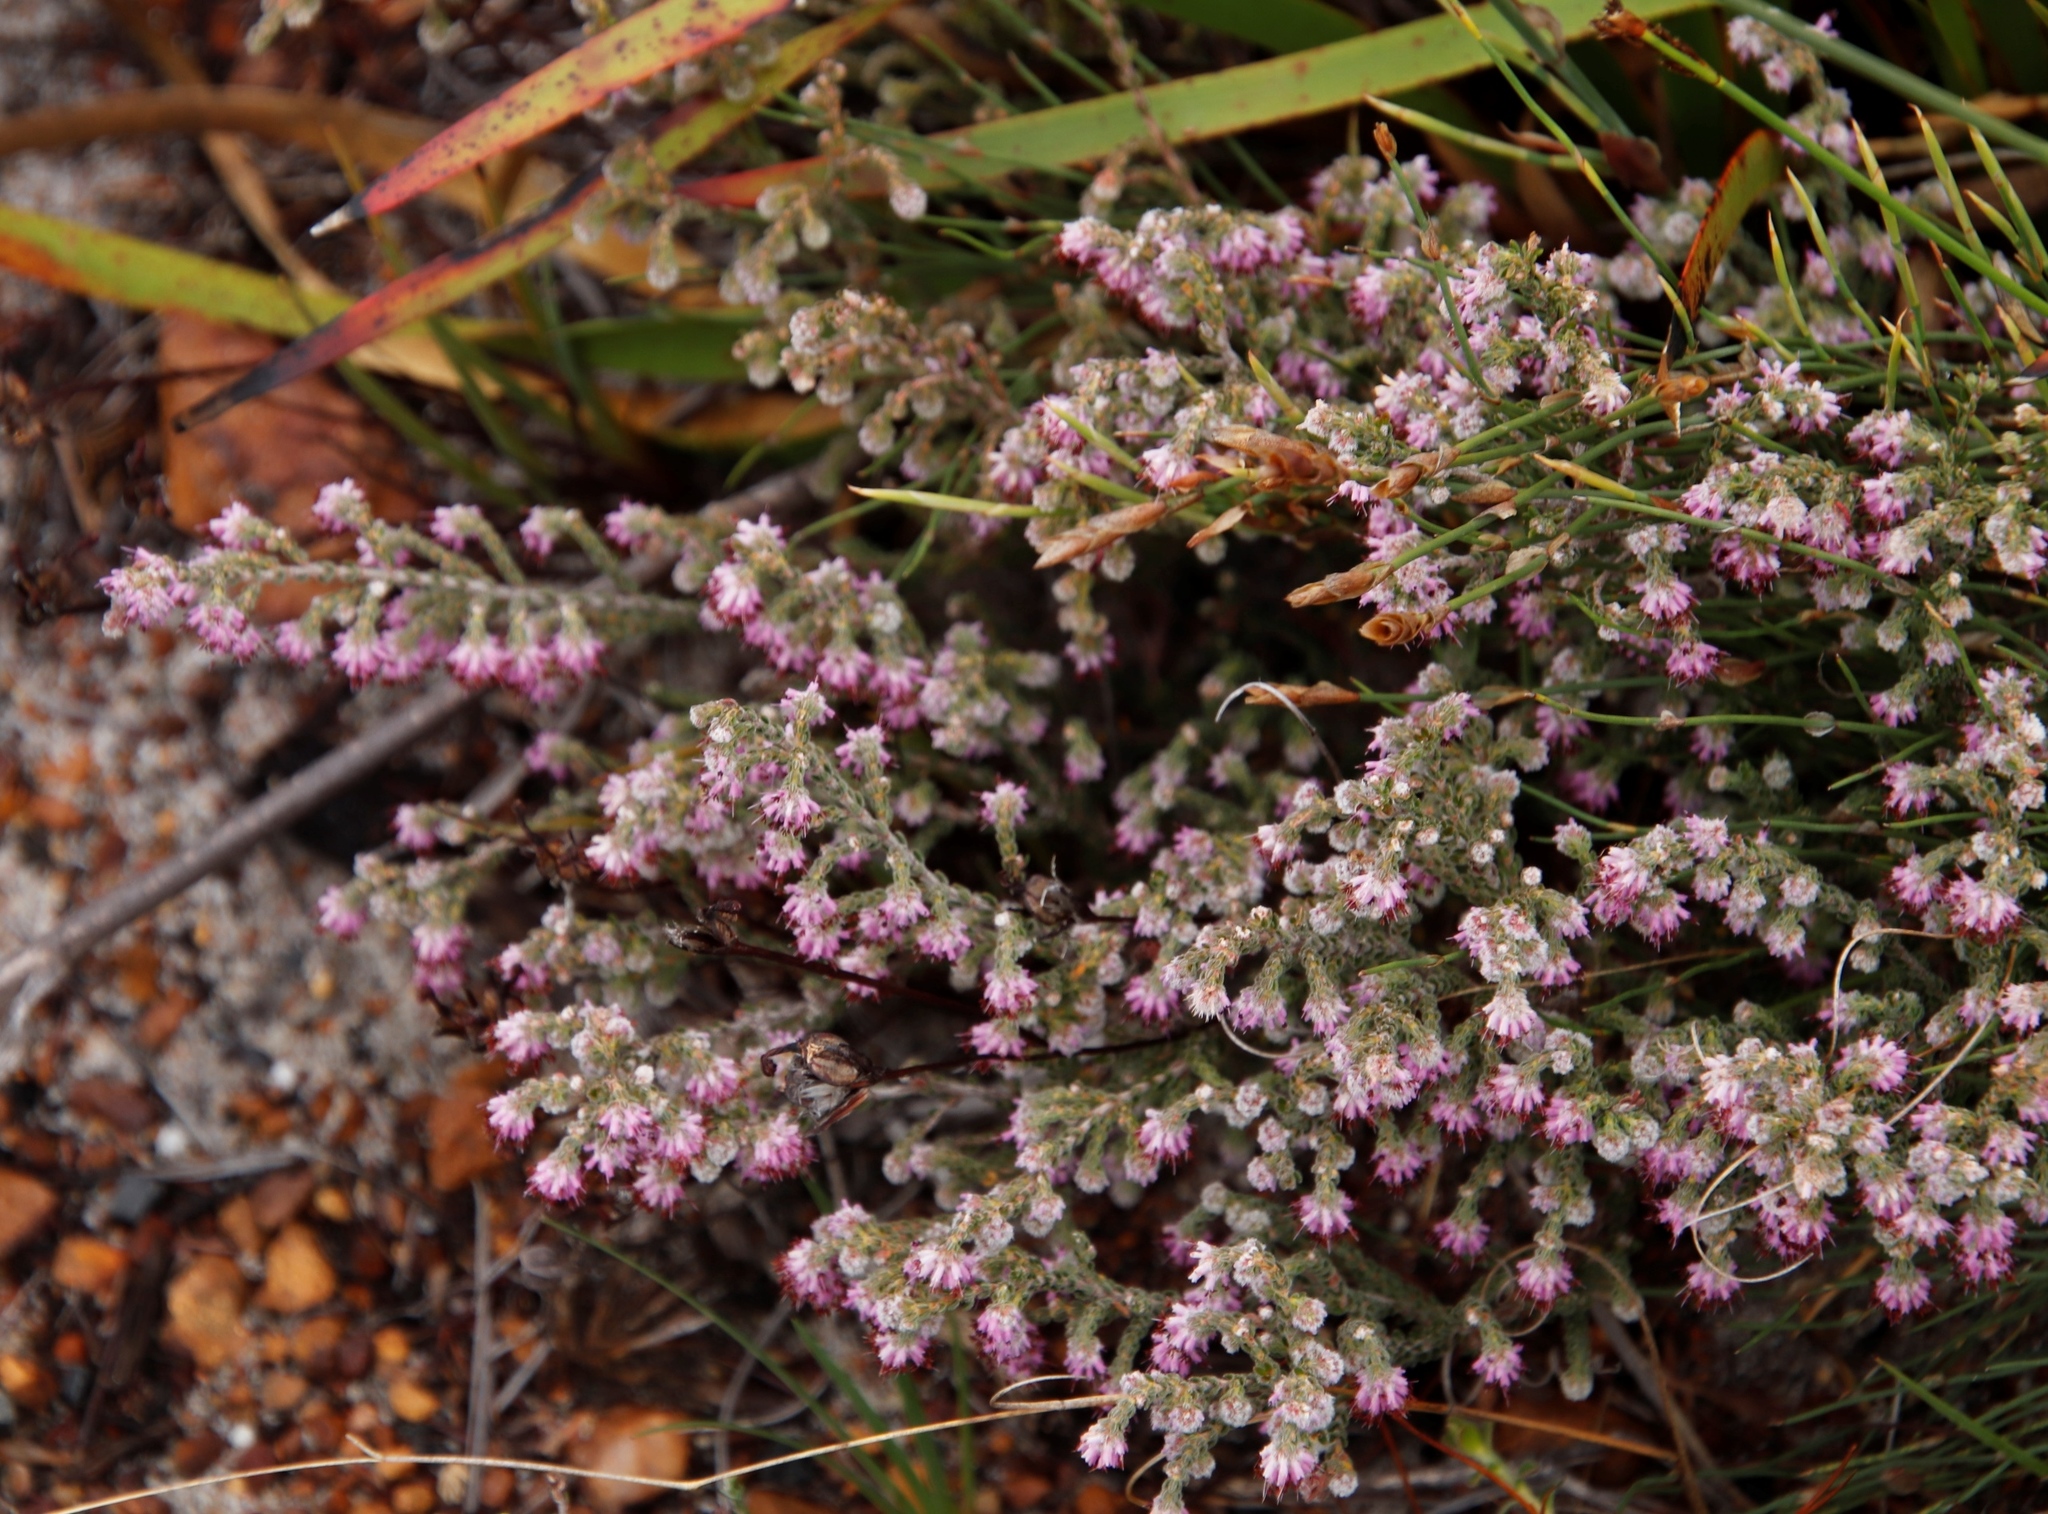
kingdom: Plantae
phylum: Tracheophyta
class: Magnoliopsida
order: Ericales
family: Ericaceae
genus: Erica
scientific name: Erica similis
